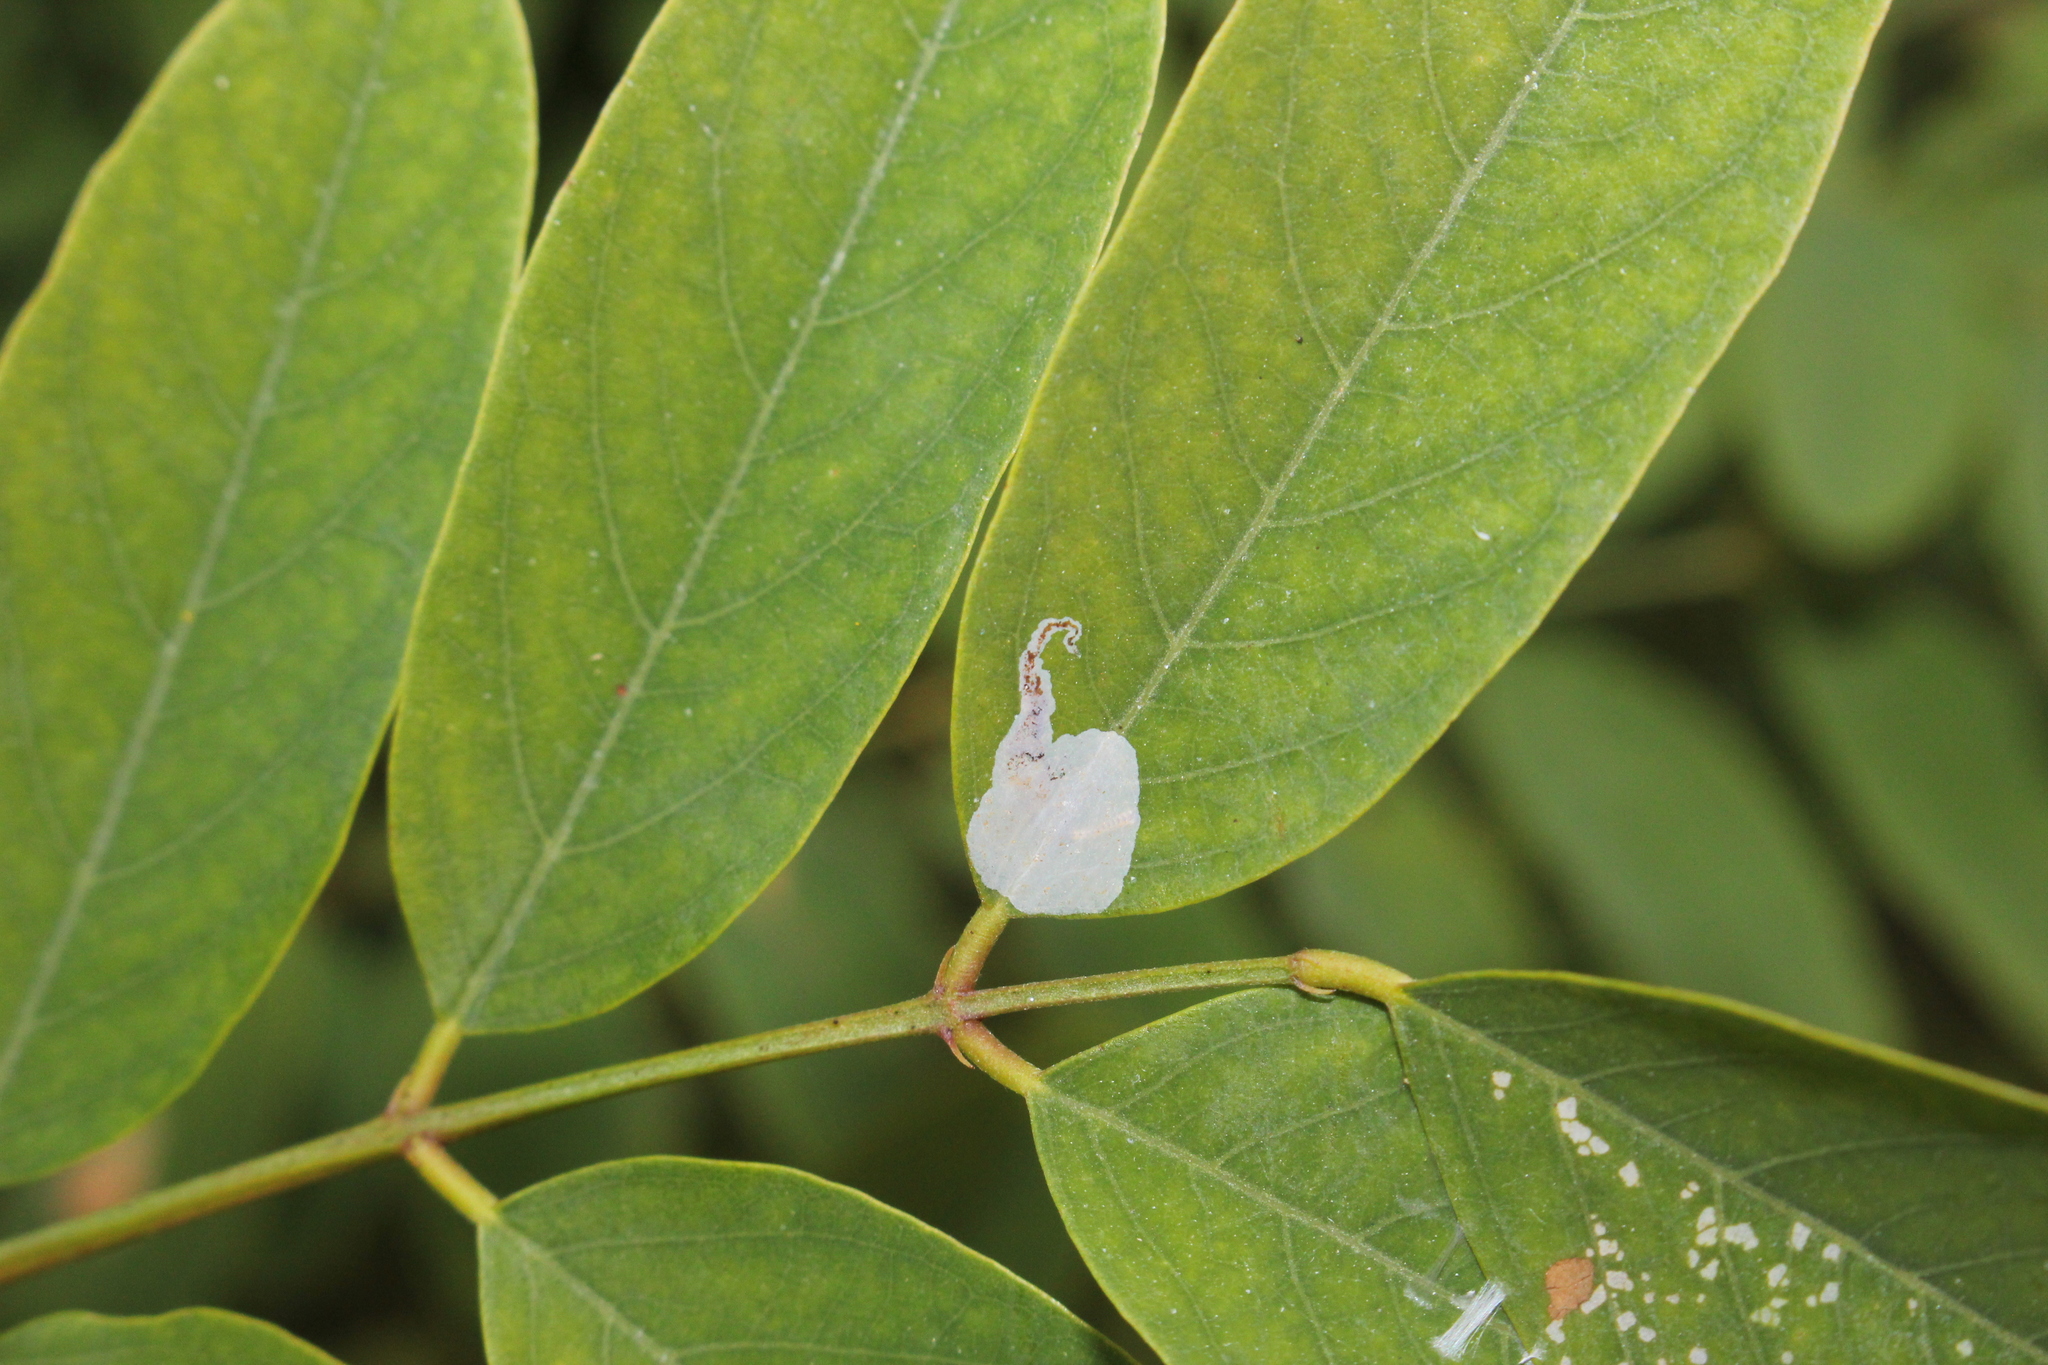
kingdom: Animalia
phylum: Arthropoda
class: Insecta
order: Lepidoptera
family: Gracillariidae
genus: Macrosaccus
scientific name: Macrosaccus robiniella
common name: Leaf blotch miner moth
